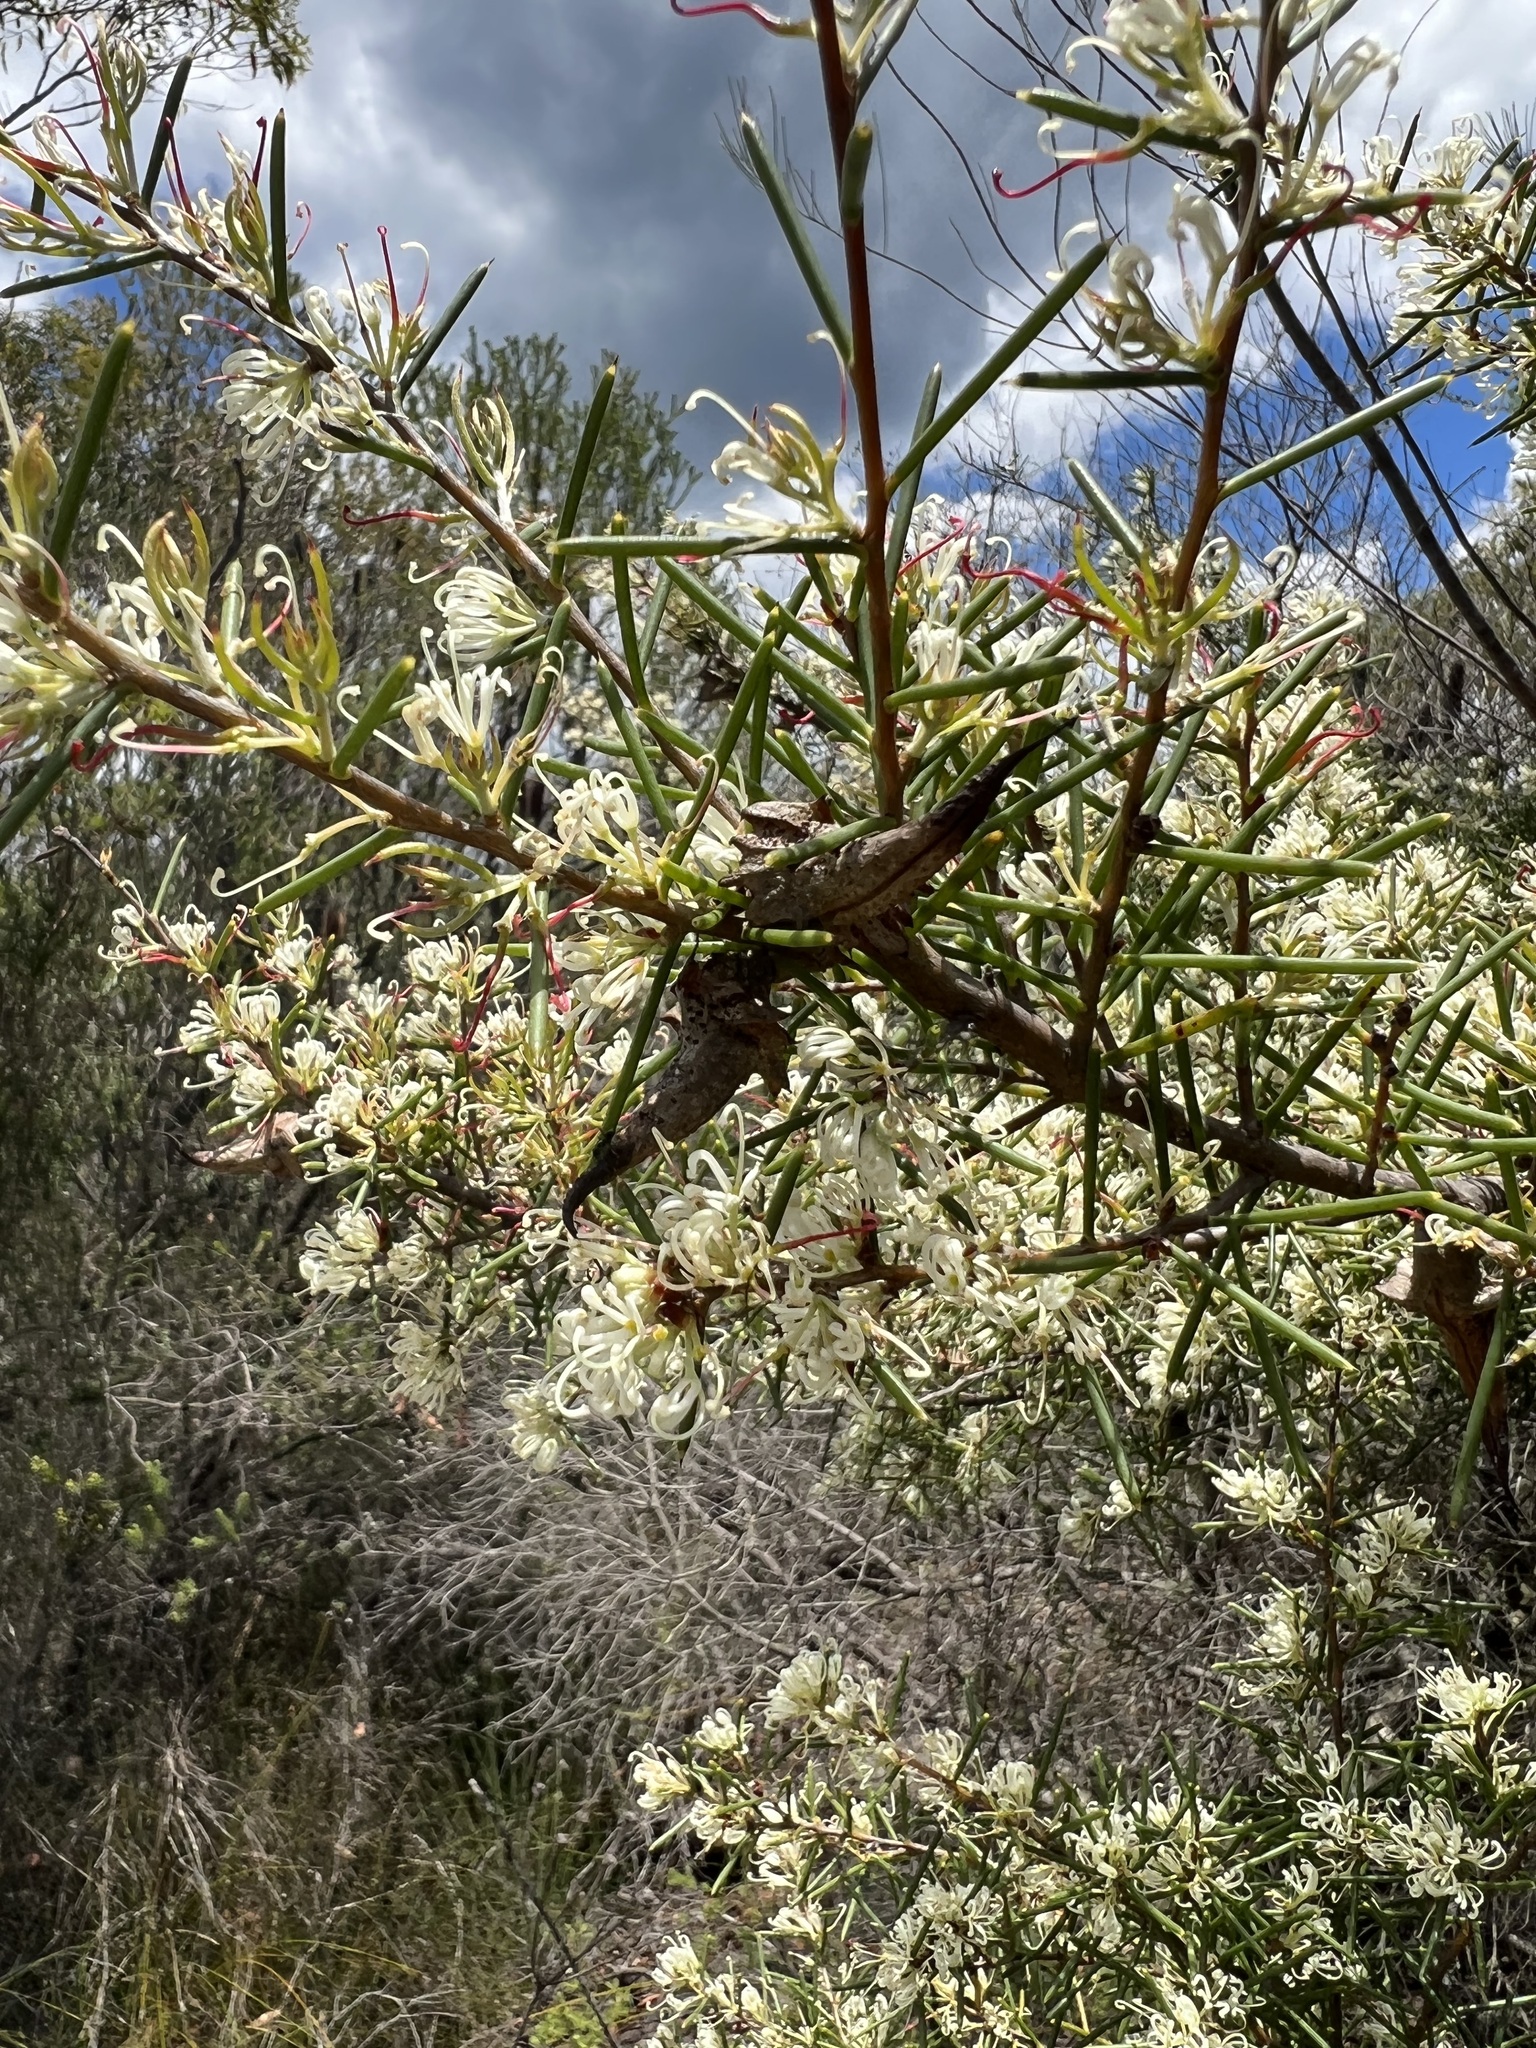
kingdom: Plantae
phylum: Tracheophyta
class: Magnoliopsida
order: Proteales
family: Proteaceae
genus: Hakea
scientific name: Hakea teretifolia
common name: Dagger hakea
